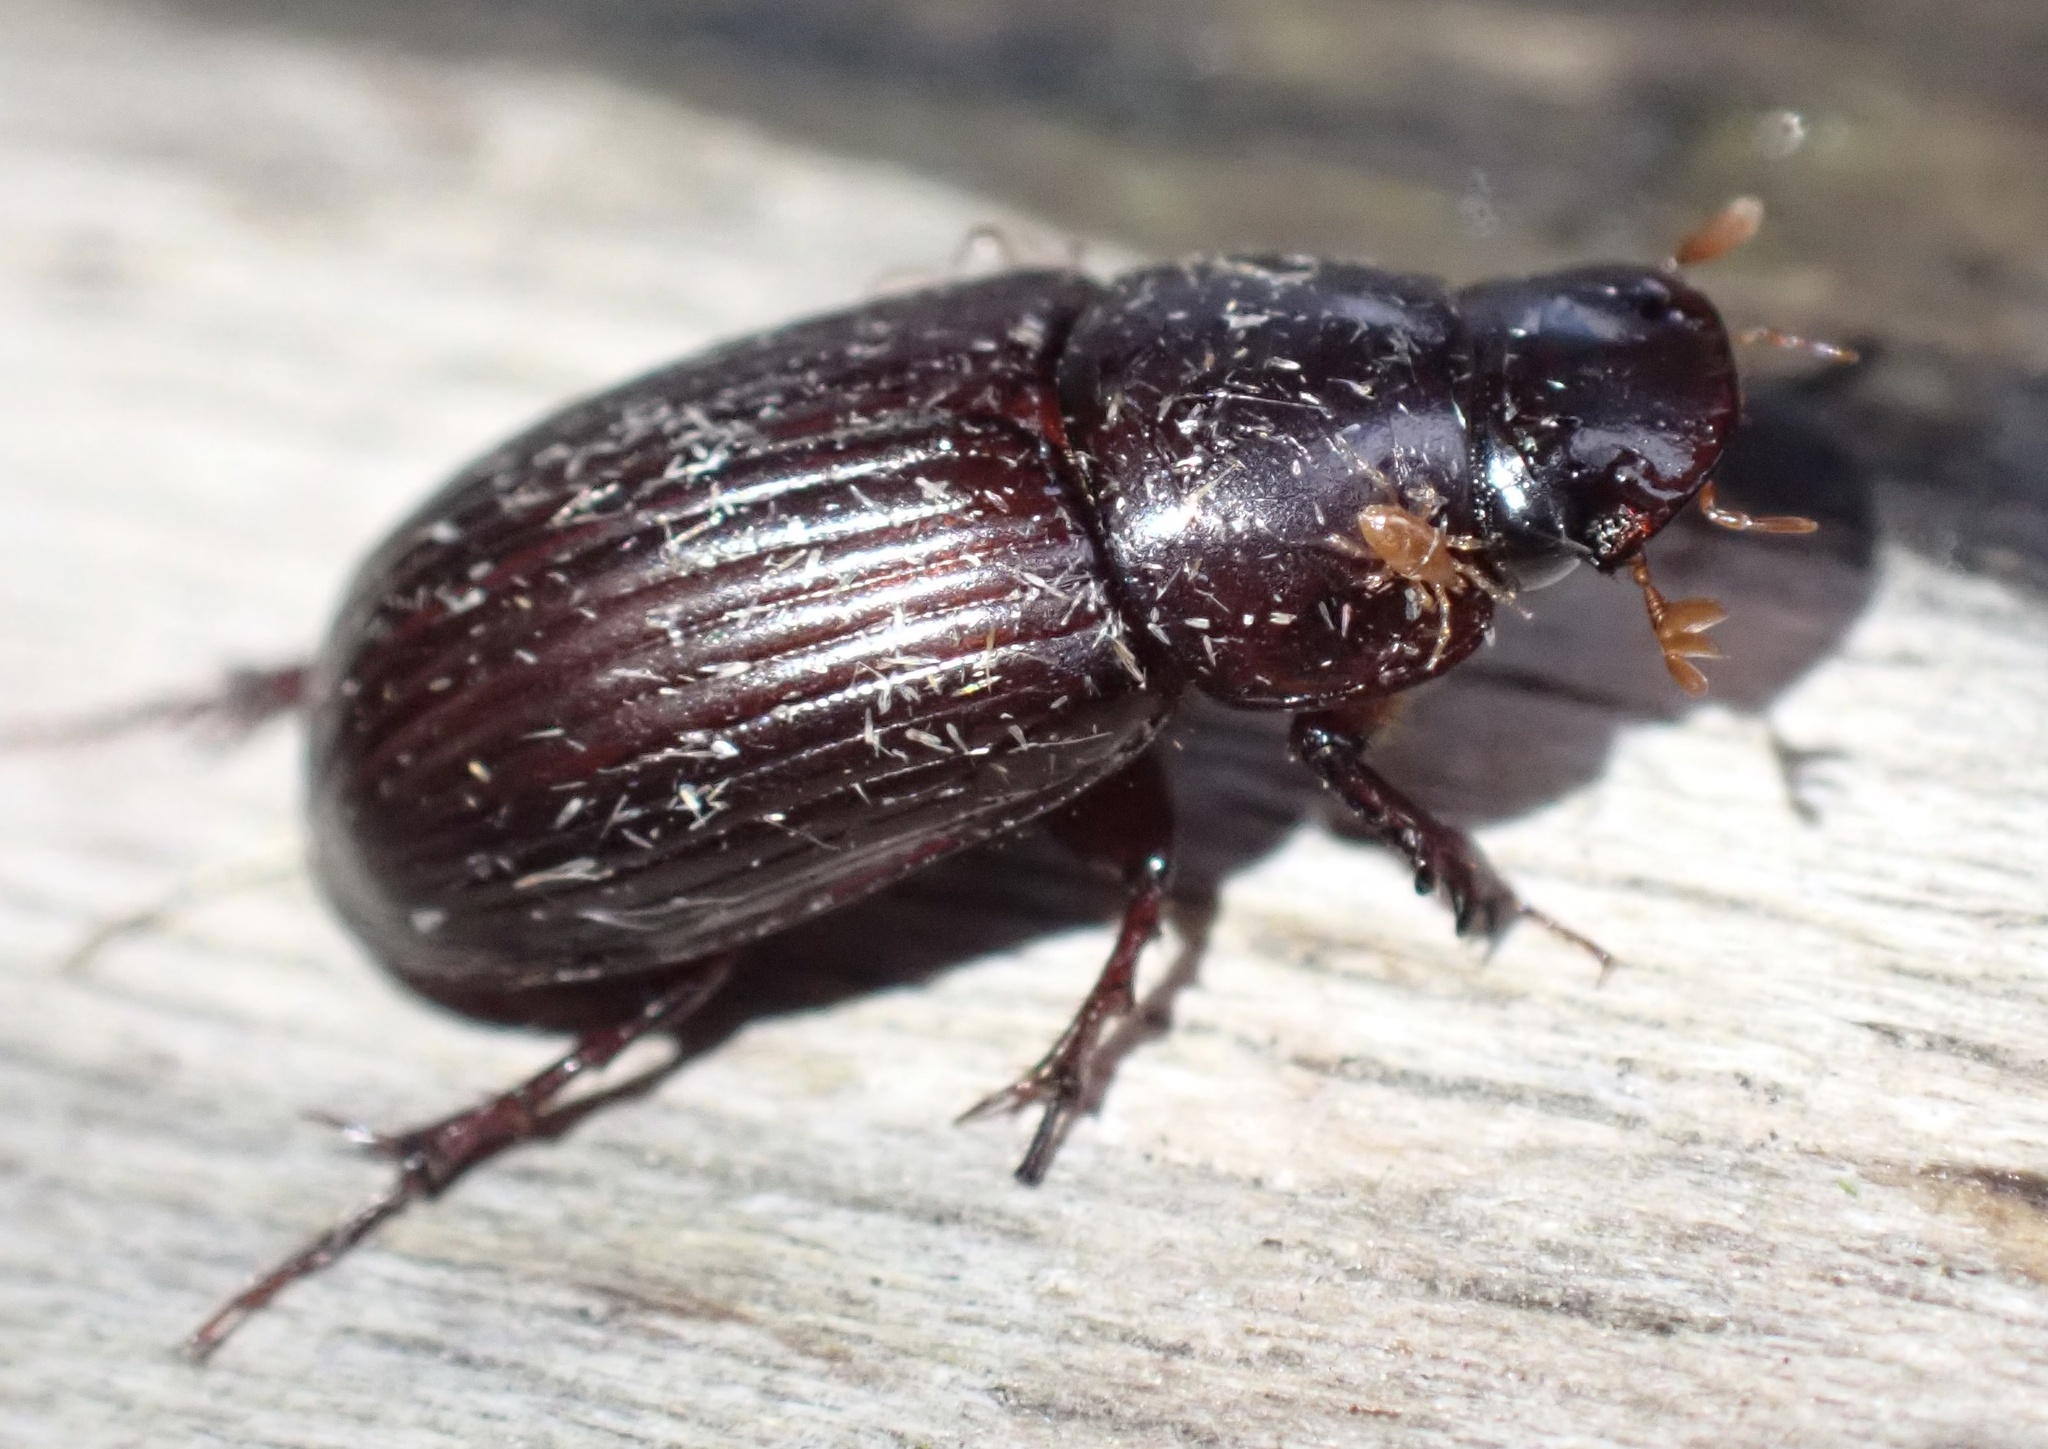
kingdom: Animalia
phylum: Arthropoda
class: Insecta
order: Coleoptera
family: Scarabaeidae
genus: Acrossus
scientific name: Acrossus rufipes
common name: Night-flying dung beetle
